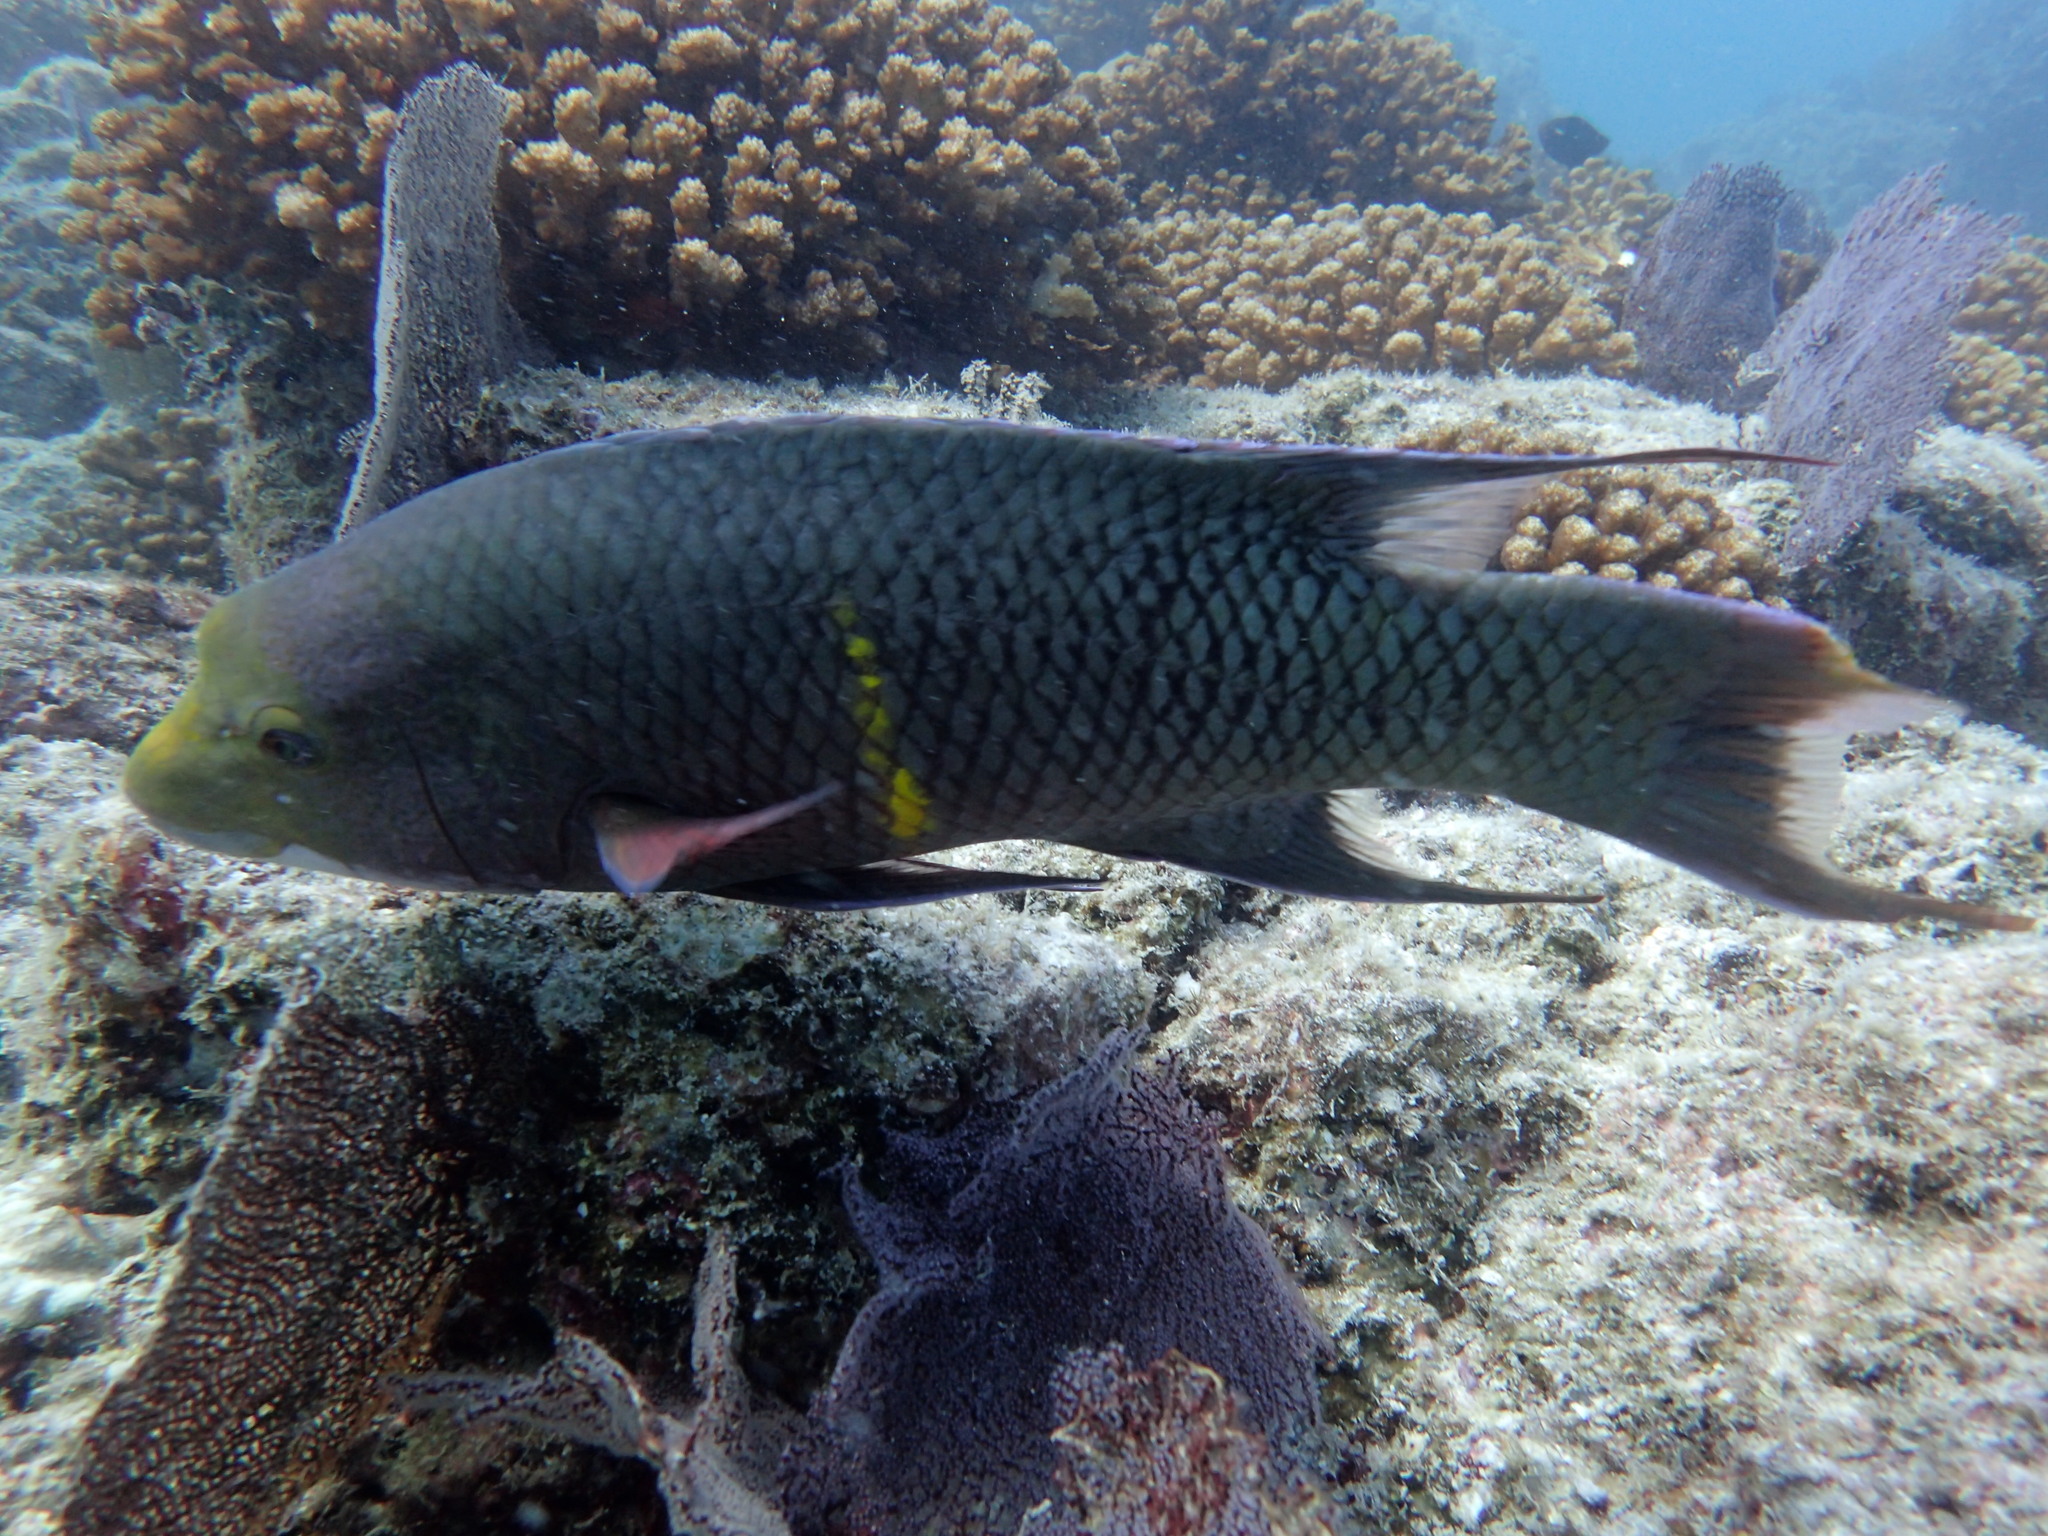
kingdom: Animalia
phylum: Chordata
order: Perciformes
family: Labridae
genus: Bodianus
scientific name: Bodianus diplotaenia
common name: Mexican hogfish
